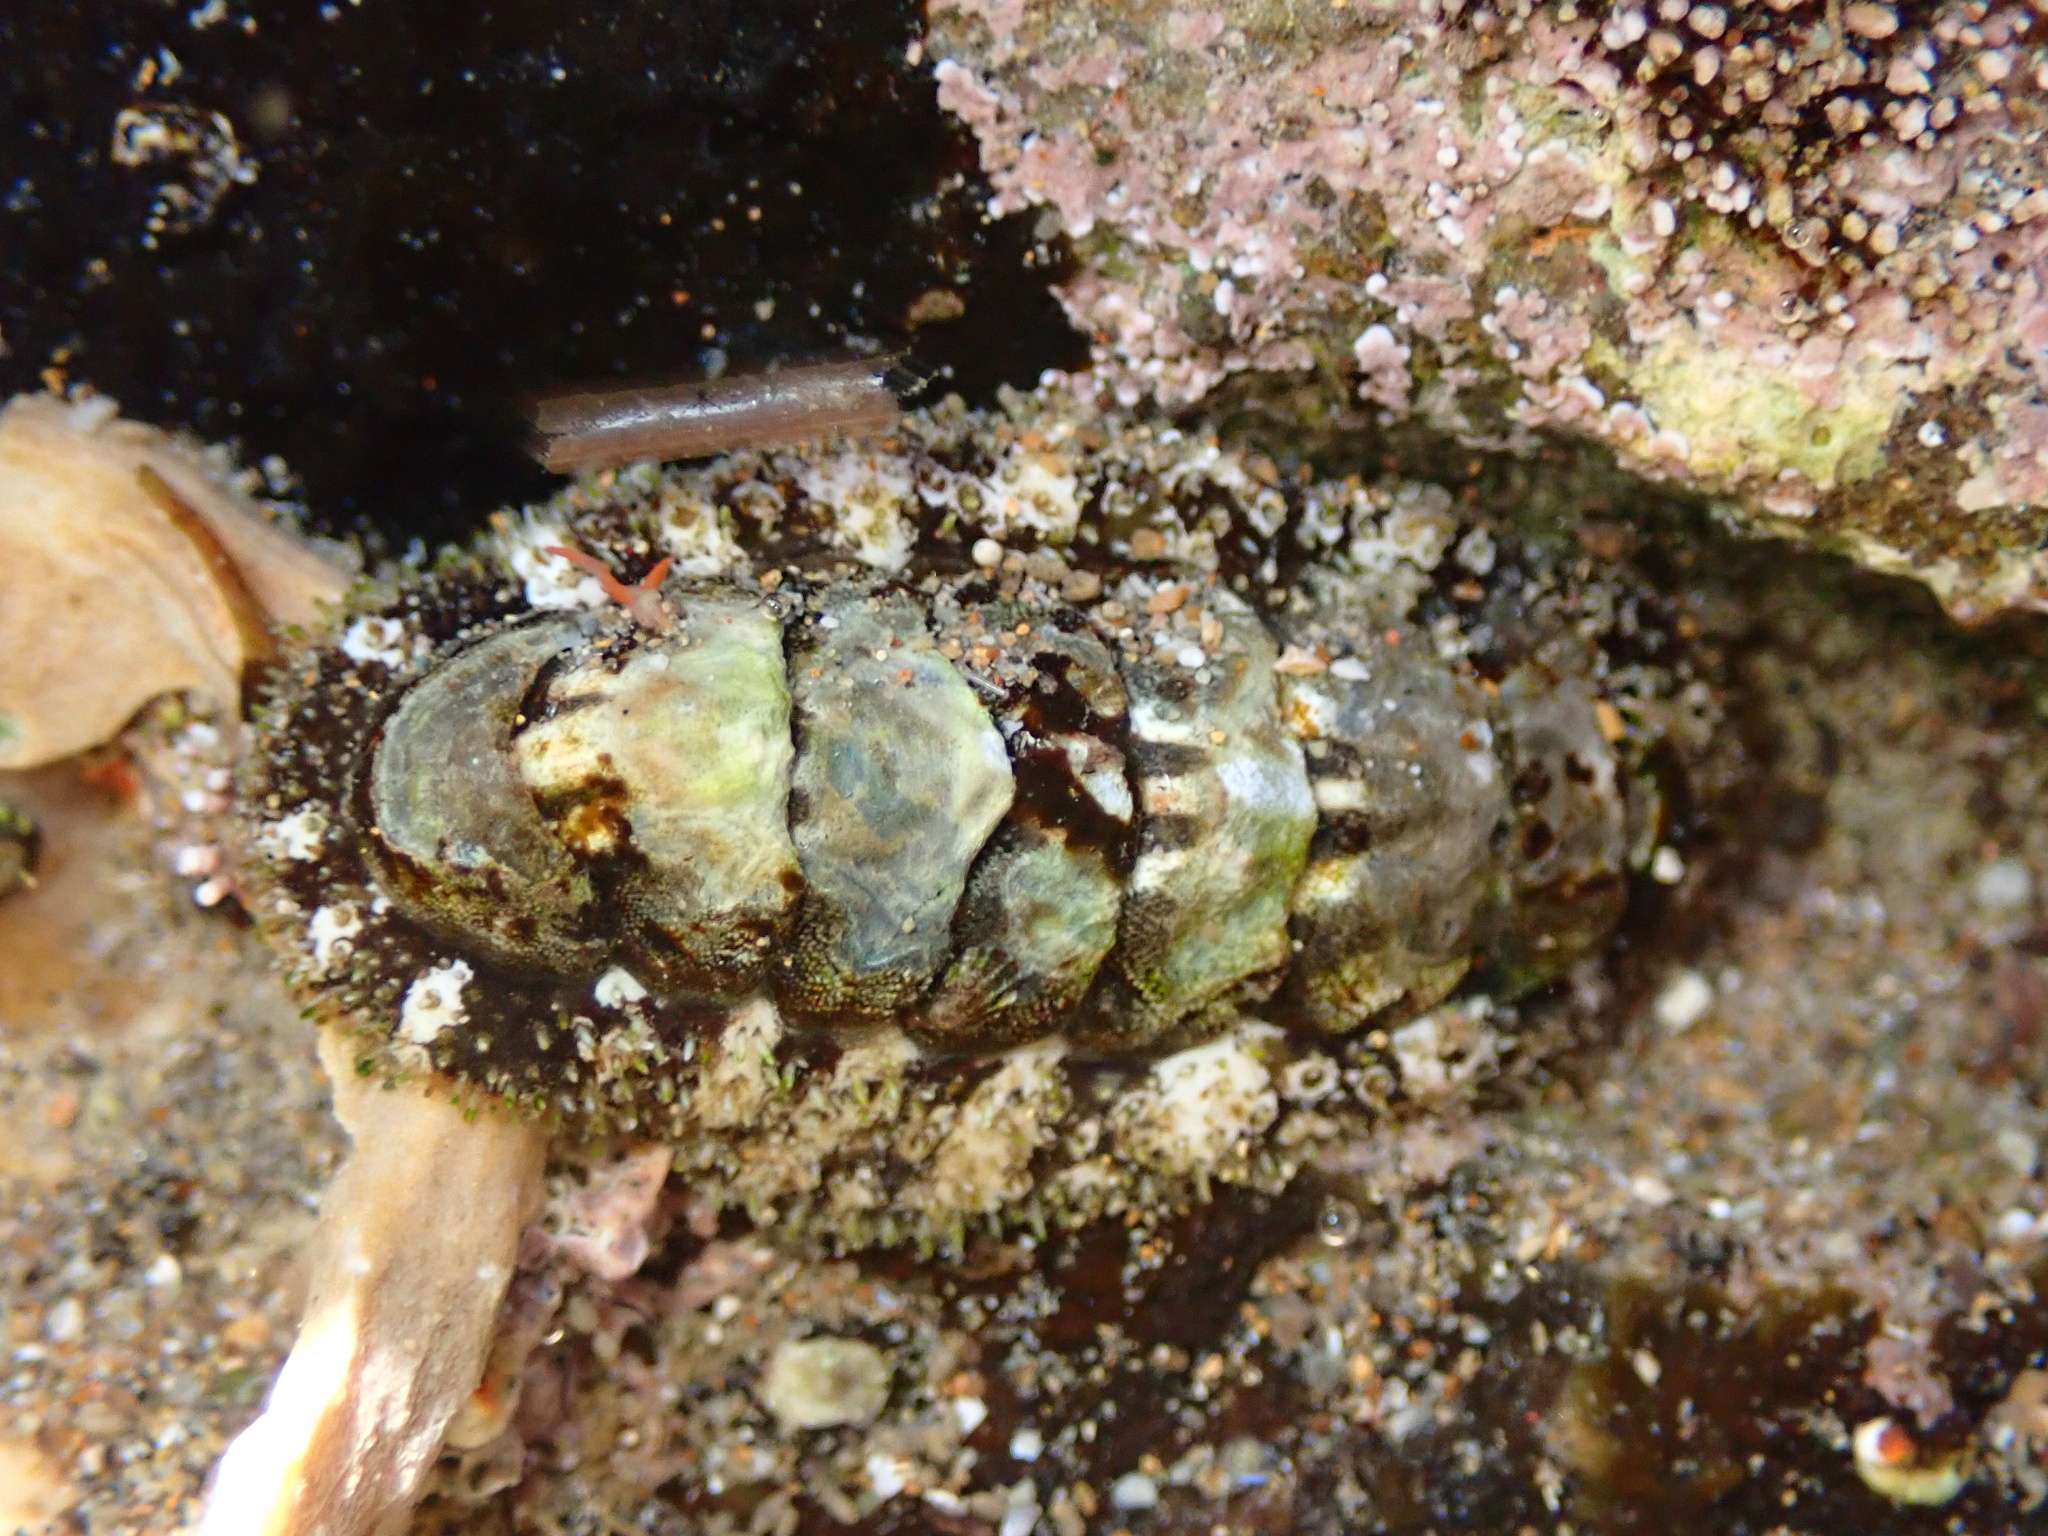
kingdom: Animalia
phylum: Mollusca
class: Polyplacophora
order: Chitonida
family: Tonicellidae
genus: Nuttallina
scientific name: Nuttallina californica
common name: California nuttall chiton
